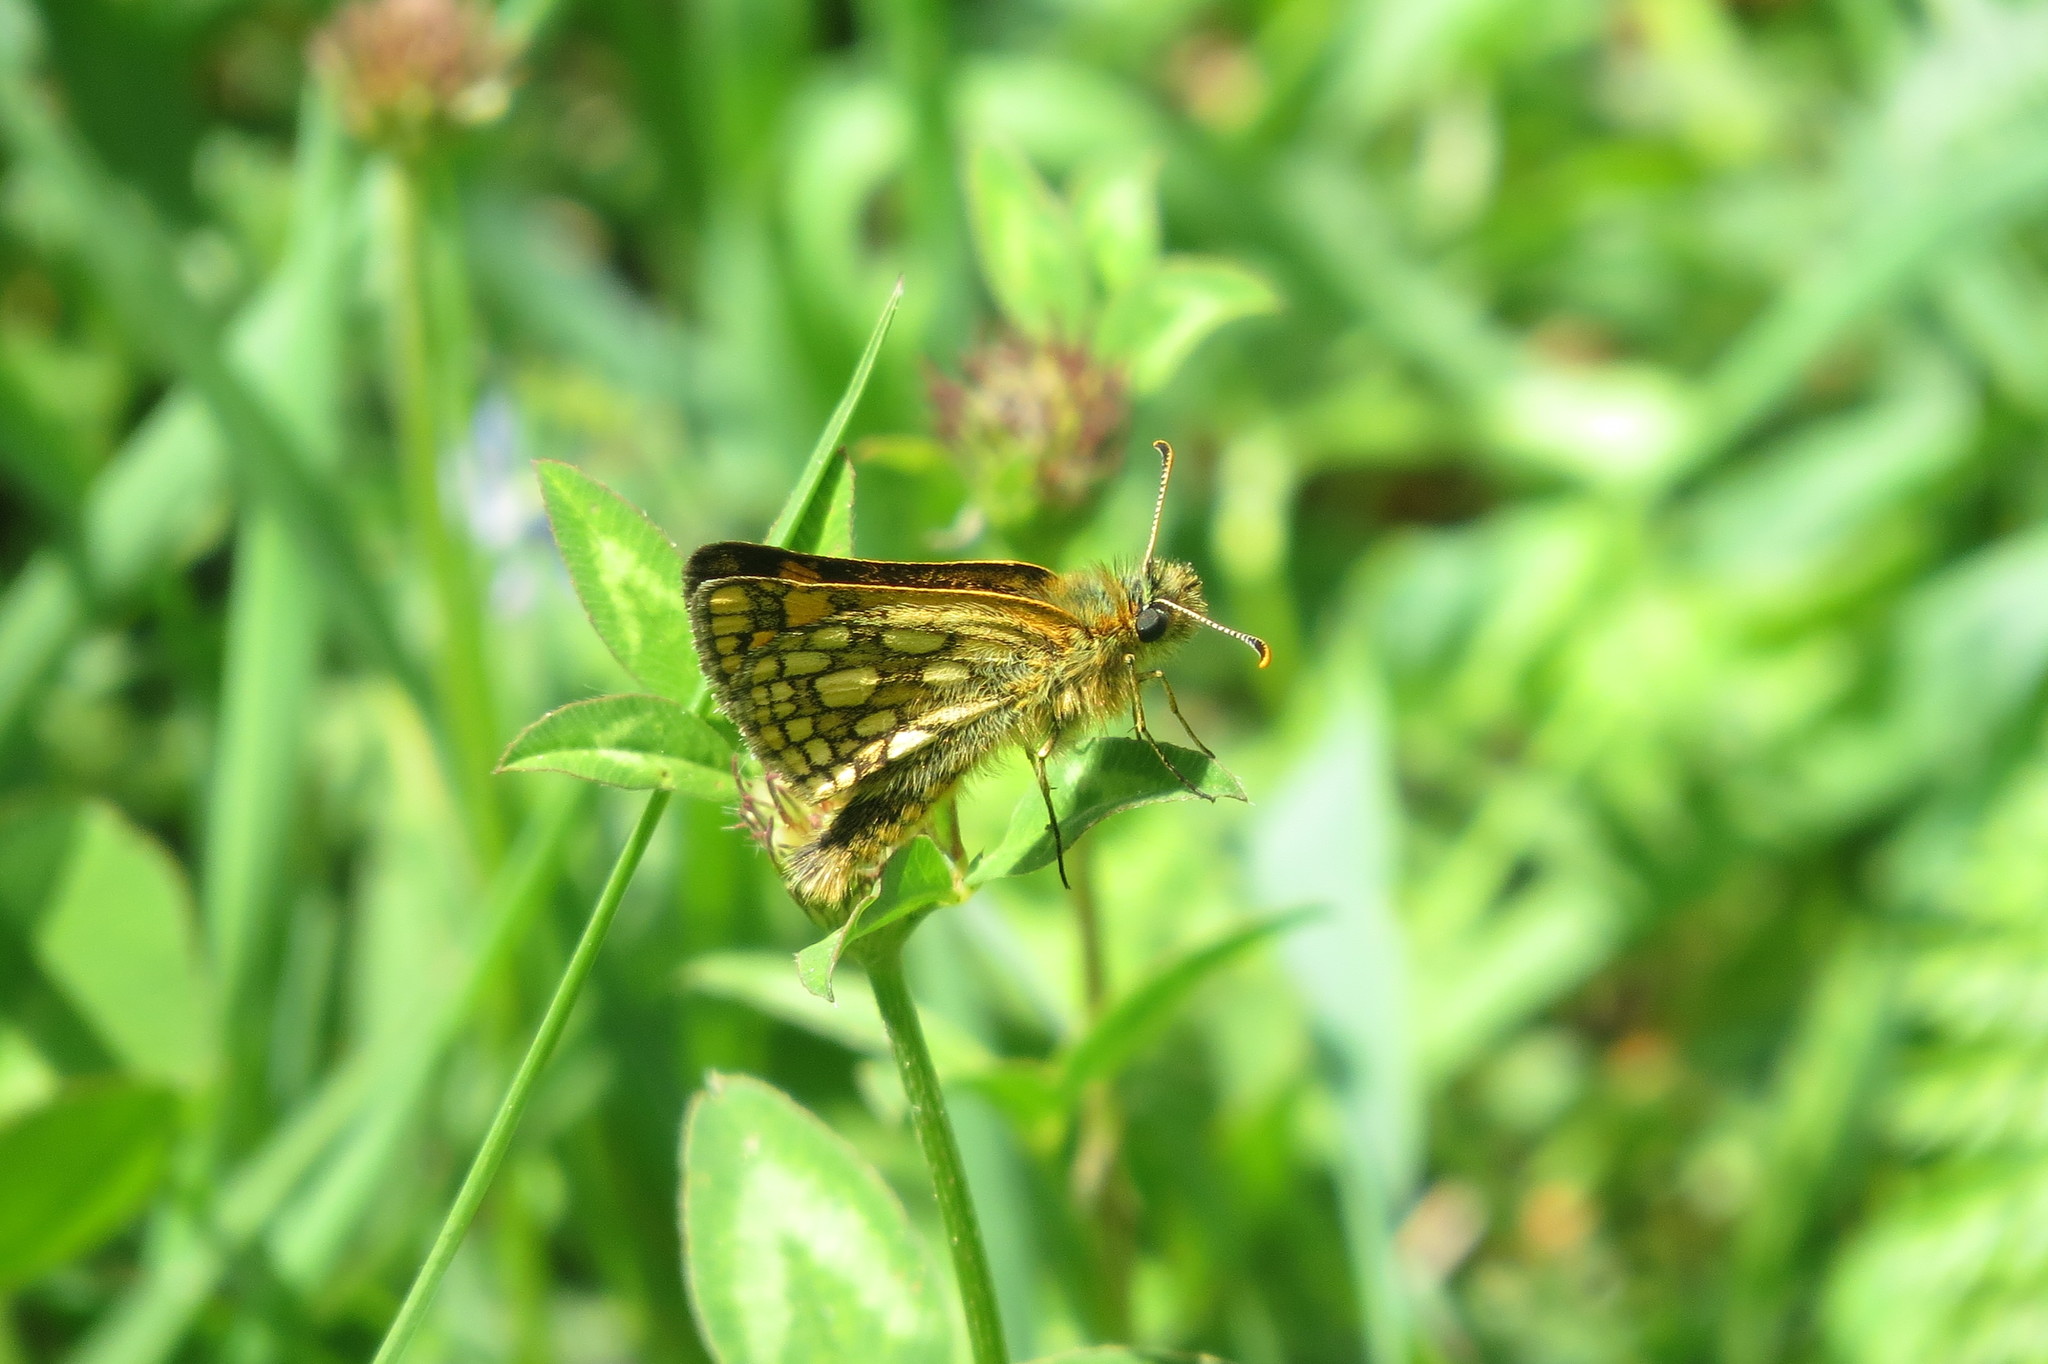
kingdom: Animalia
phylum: Arthropoda
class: Insecta
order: Lepidoptera
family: Hesperiidae
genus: Carterocephalus
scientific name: Carterocephalus palaemon
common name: Chequered skipper
